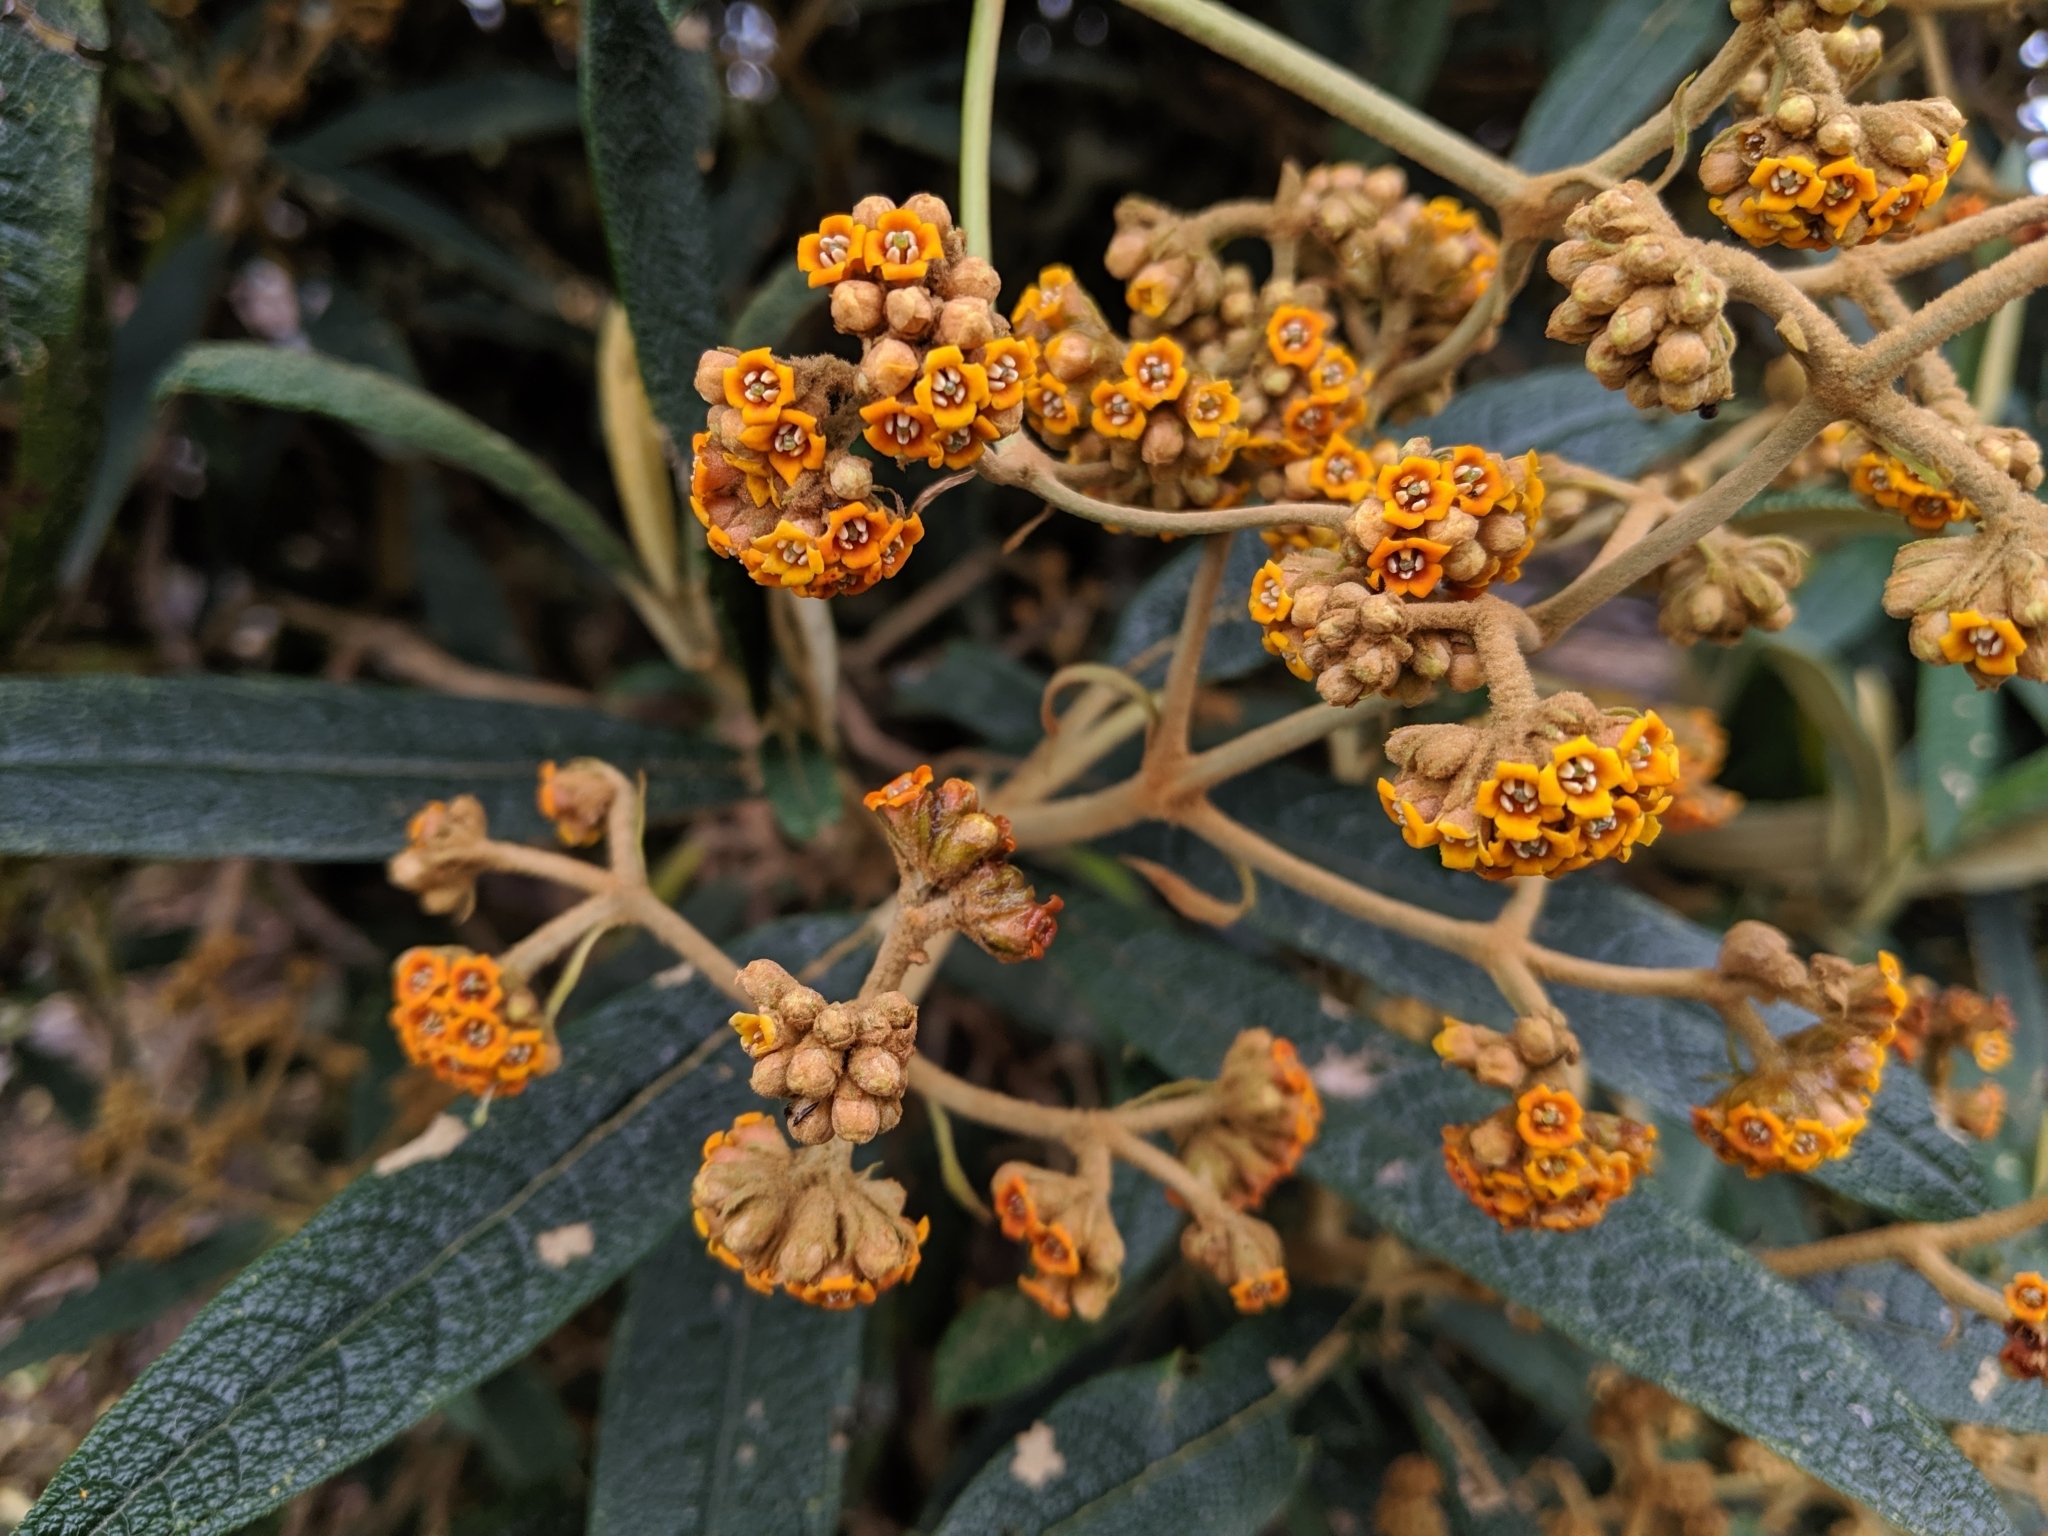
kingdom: Plantae
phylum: Tracheophyta
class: Magnoliopsida
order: Lamiales
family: Scrophulariaceae
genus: Buddleja
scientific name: Buddleja incana
